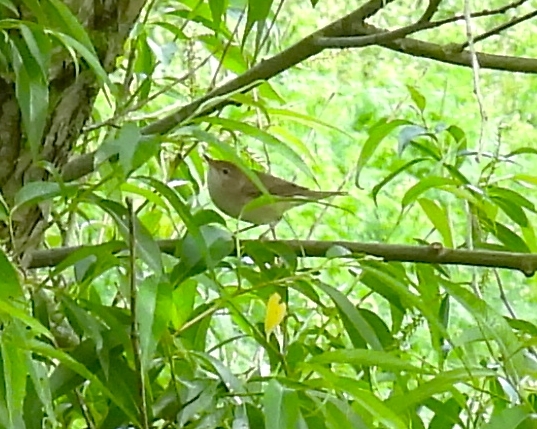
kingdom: Animalia
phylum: Chordata
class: Aves
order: Passeriformes
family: Sylviidae
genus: Sylvia
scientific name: Sylvia borin
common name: Garden warbler
